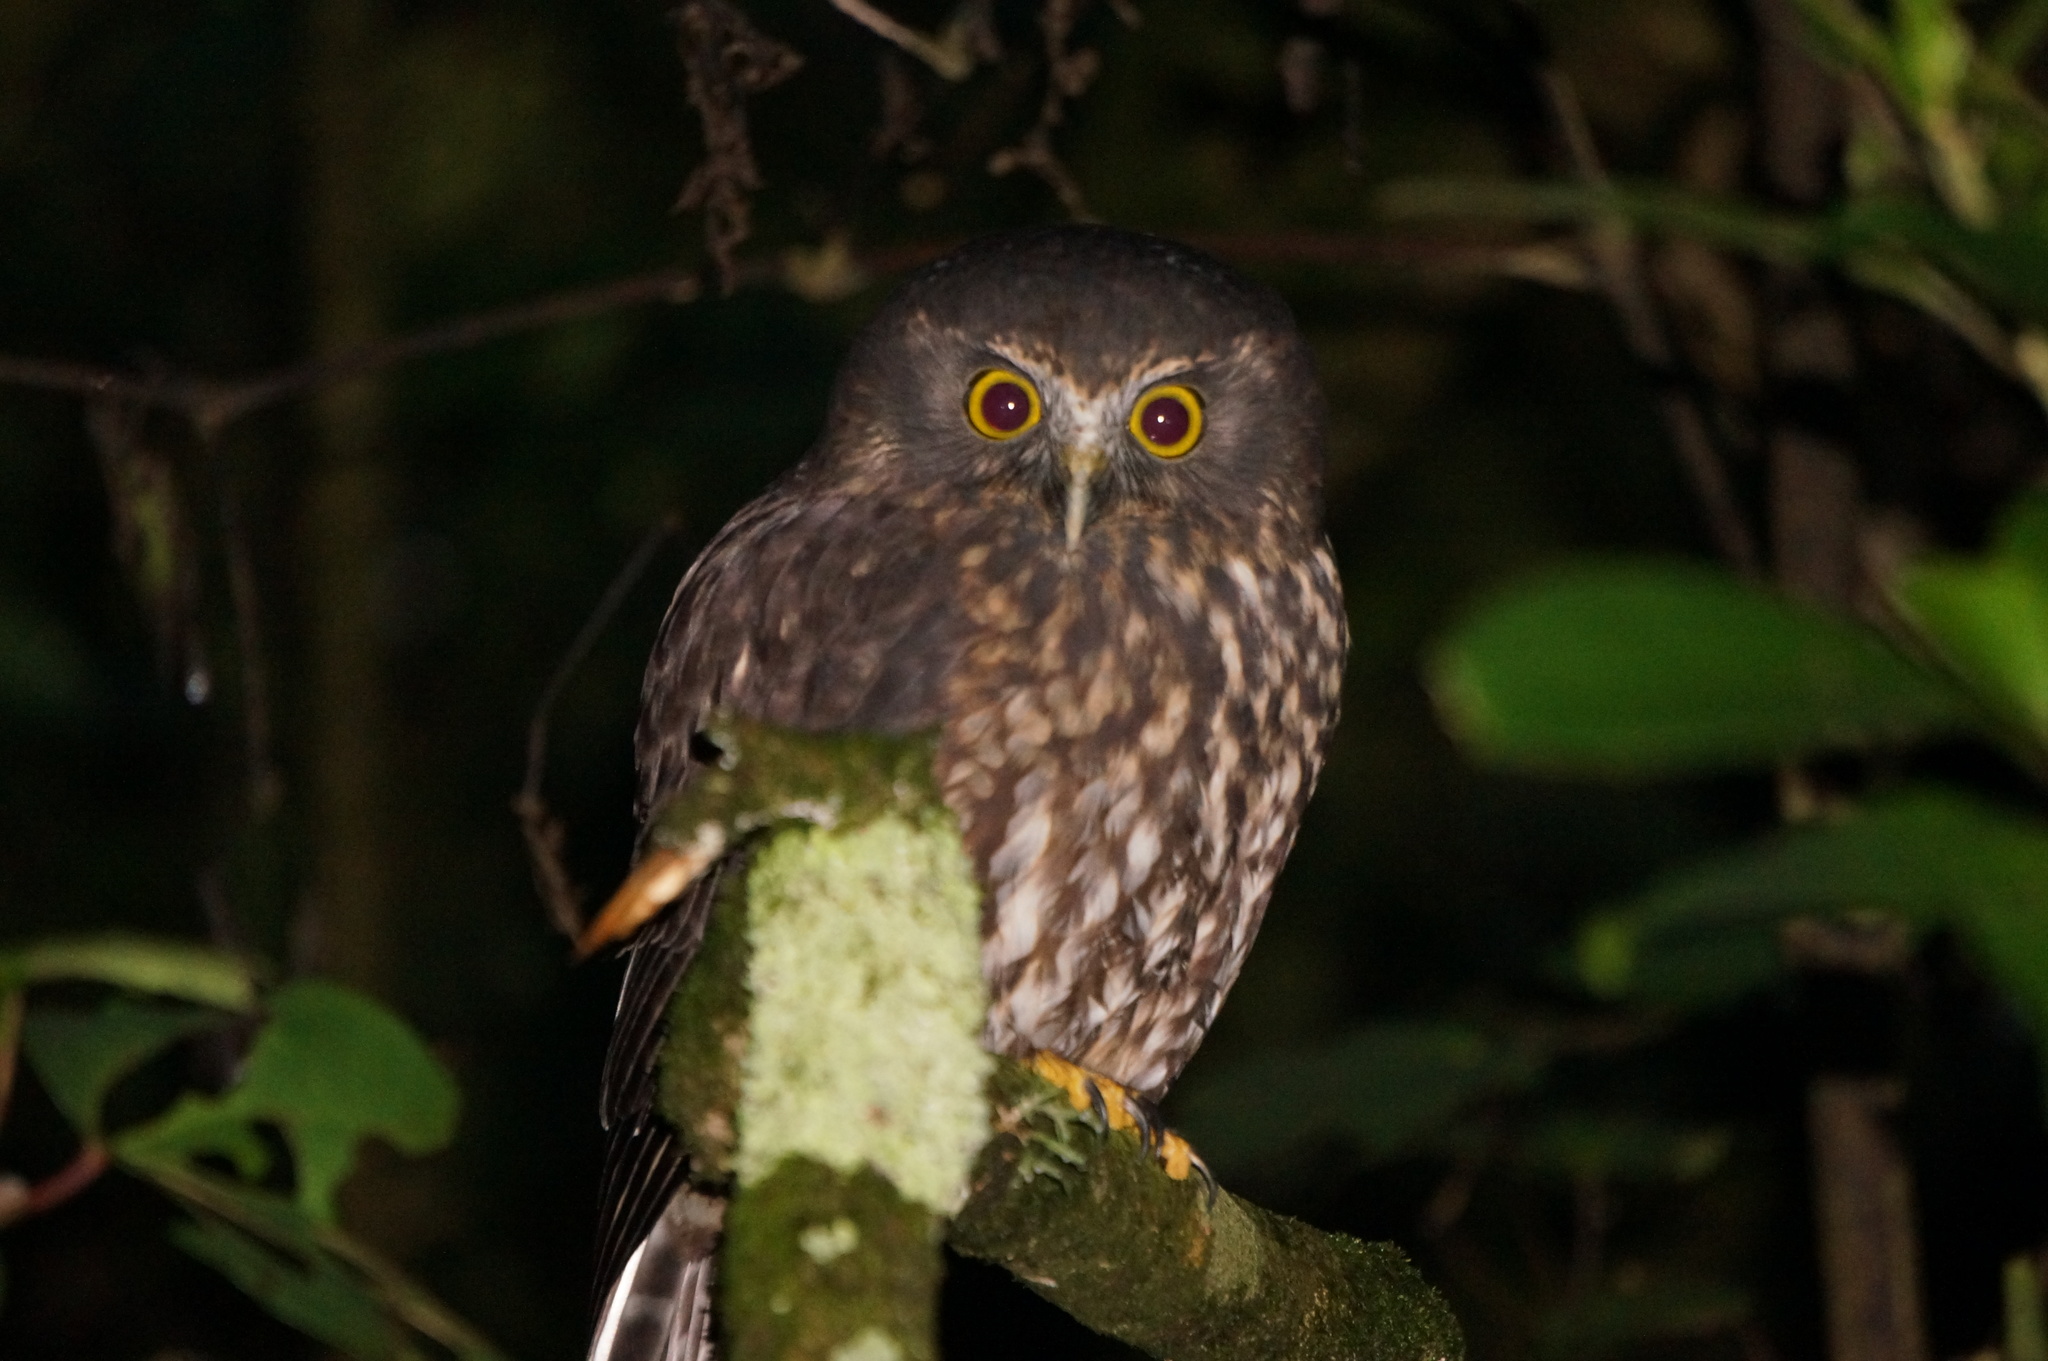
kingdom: Animalia
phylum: Chordata
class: Aves
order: Strigiformes
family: Strigidae
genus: Ninox
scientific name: Ninox novaeseelandiae
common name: Morepork
